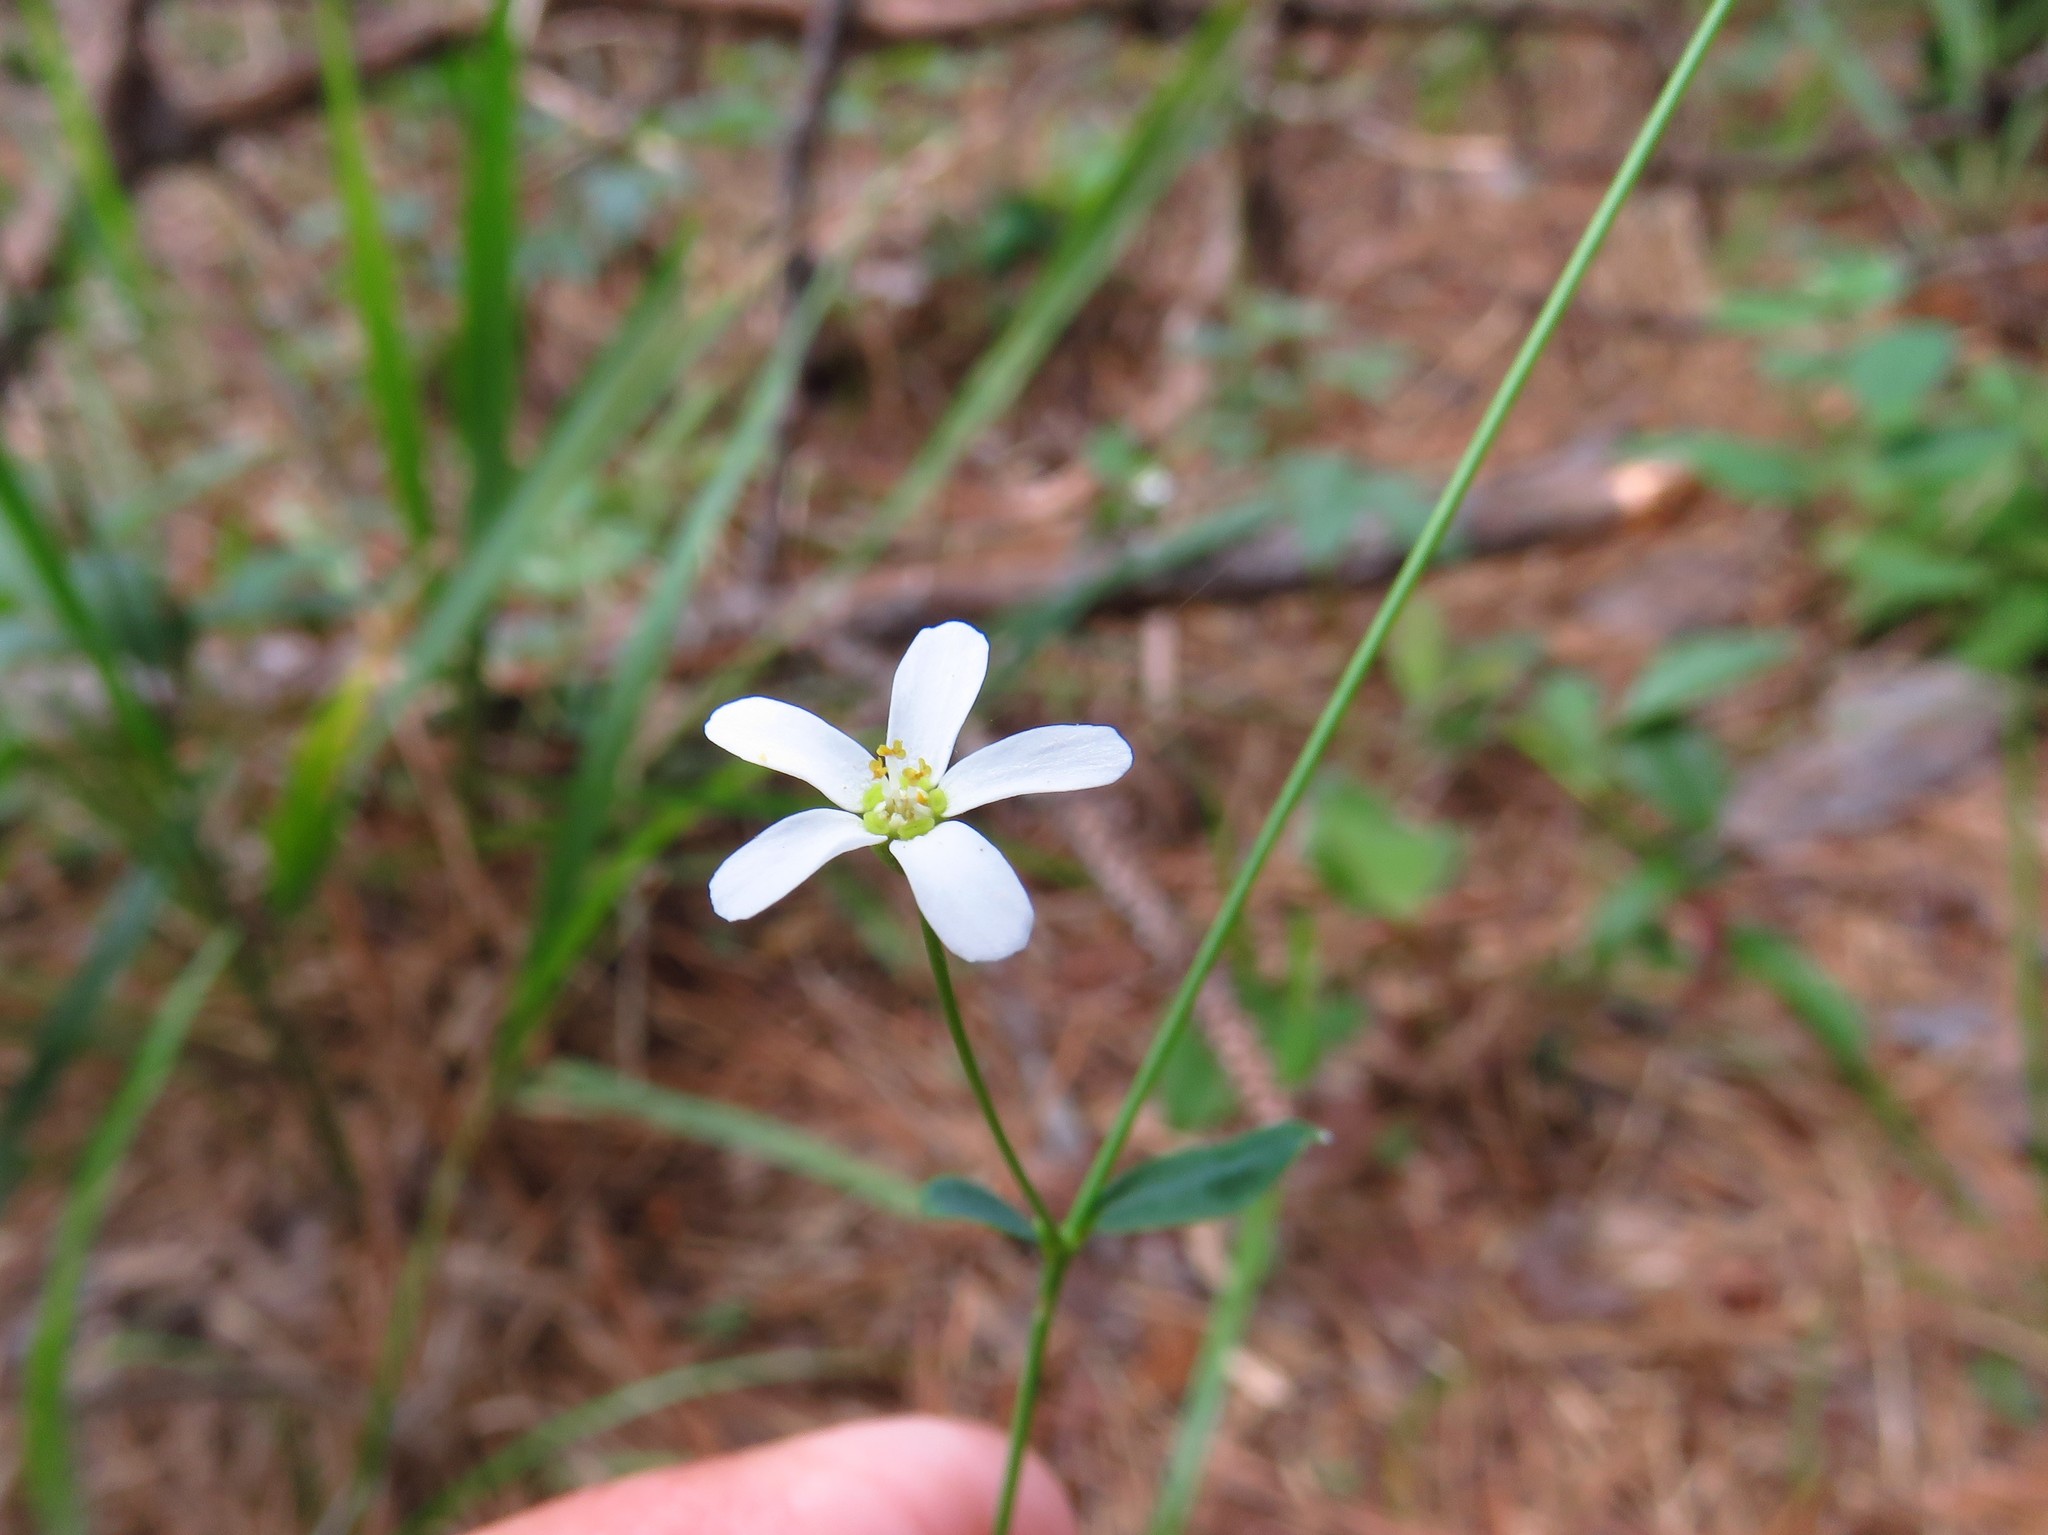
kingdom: Plantae
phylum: Tracheophyta
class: Magnoliopsida
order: Malpighiales
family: Euphorbiaceae
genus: Euphorbia
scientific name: Euphorbia corollata
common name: Flowering spurge
